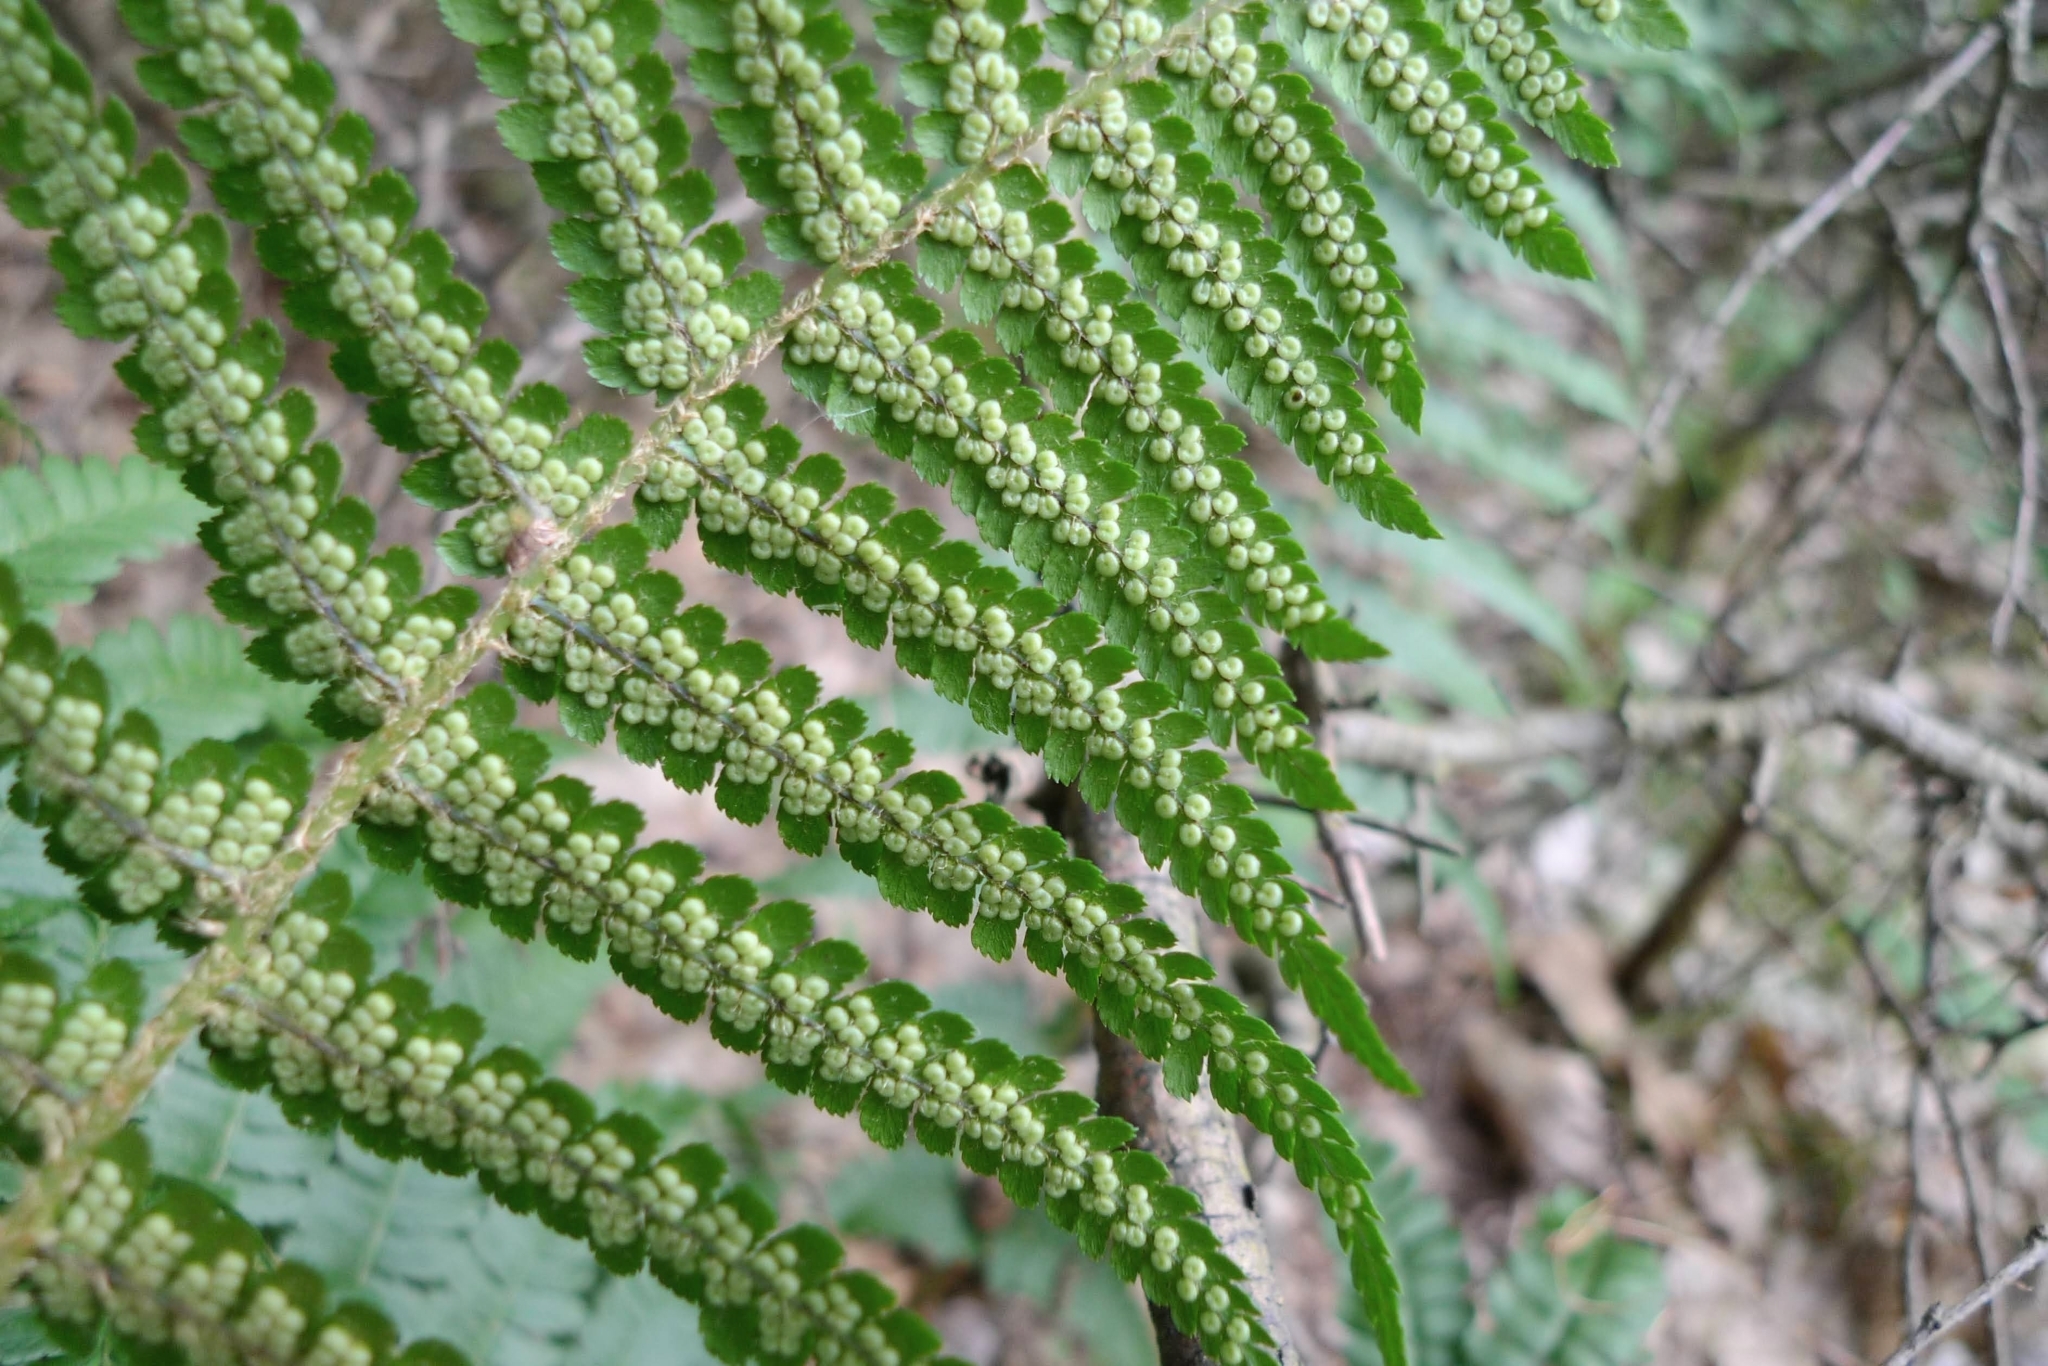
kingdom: Plantae
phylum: Tracheophyta
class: Polypodiopsida
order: Polypodiales
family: Dryopteridaceae
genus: Dryopteris
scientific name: Dryopteris filix-mas
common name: Male fern
